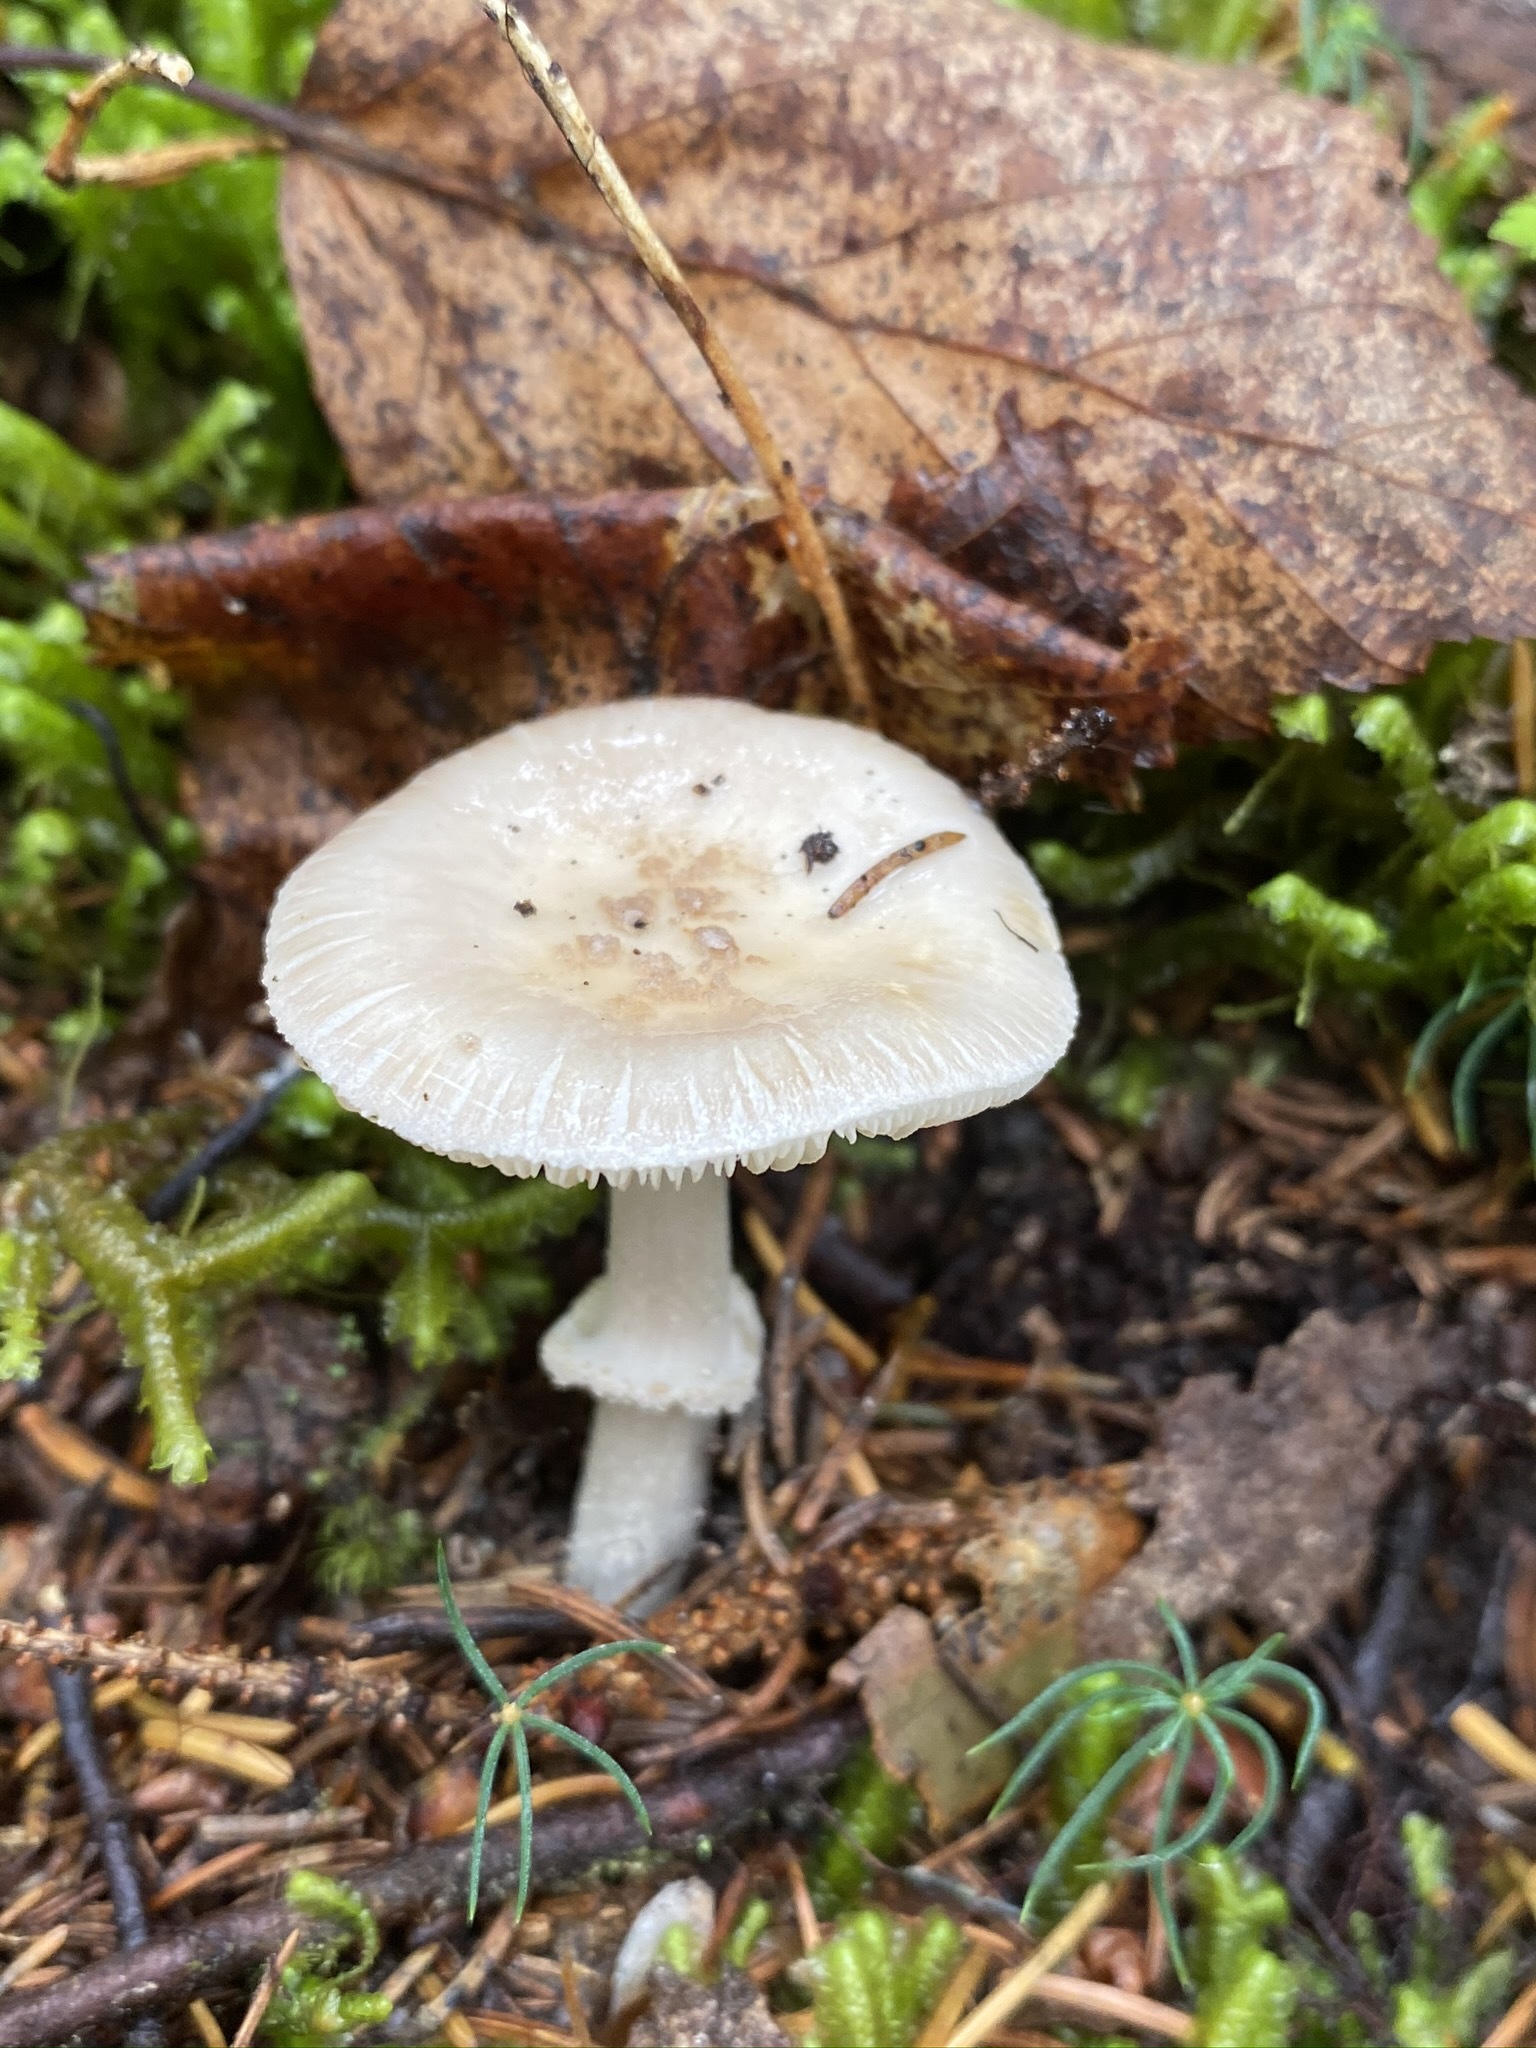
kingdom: Fungi
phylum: Basidiomycota
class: Agaricomycetes
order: Agaricales
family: Amanitaceae
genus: Amanita
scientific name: Amanita lavendula
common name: Coker's lavender staining amanita
